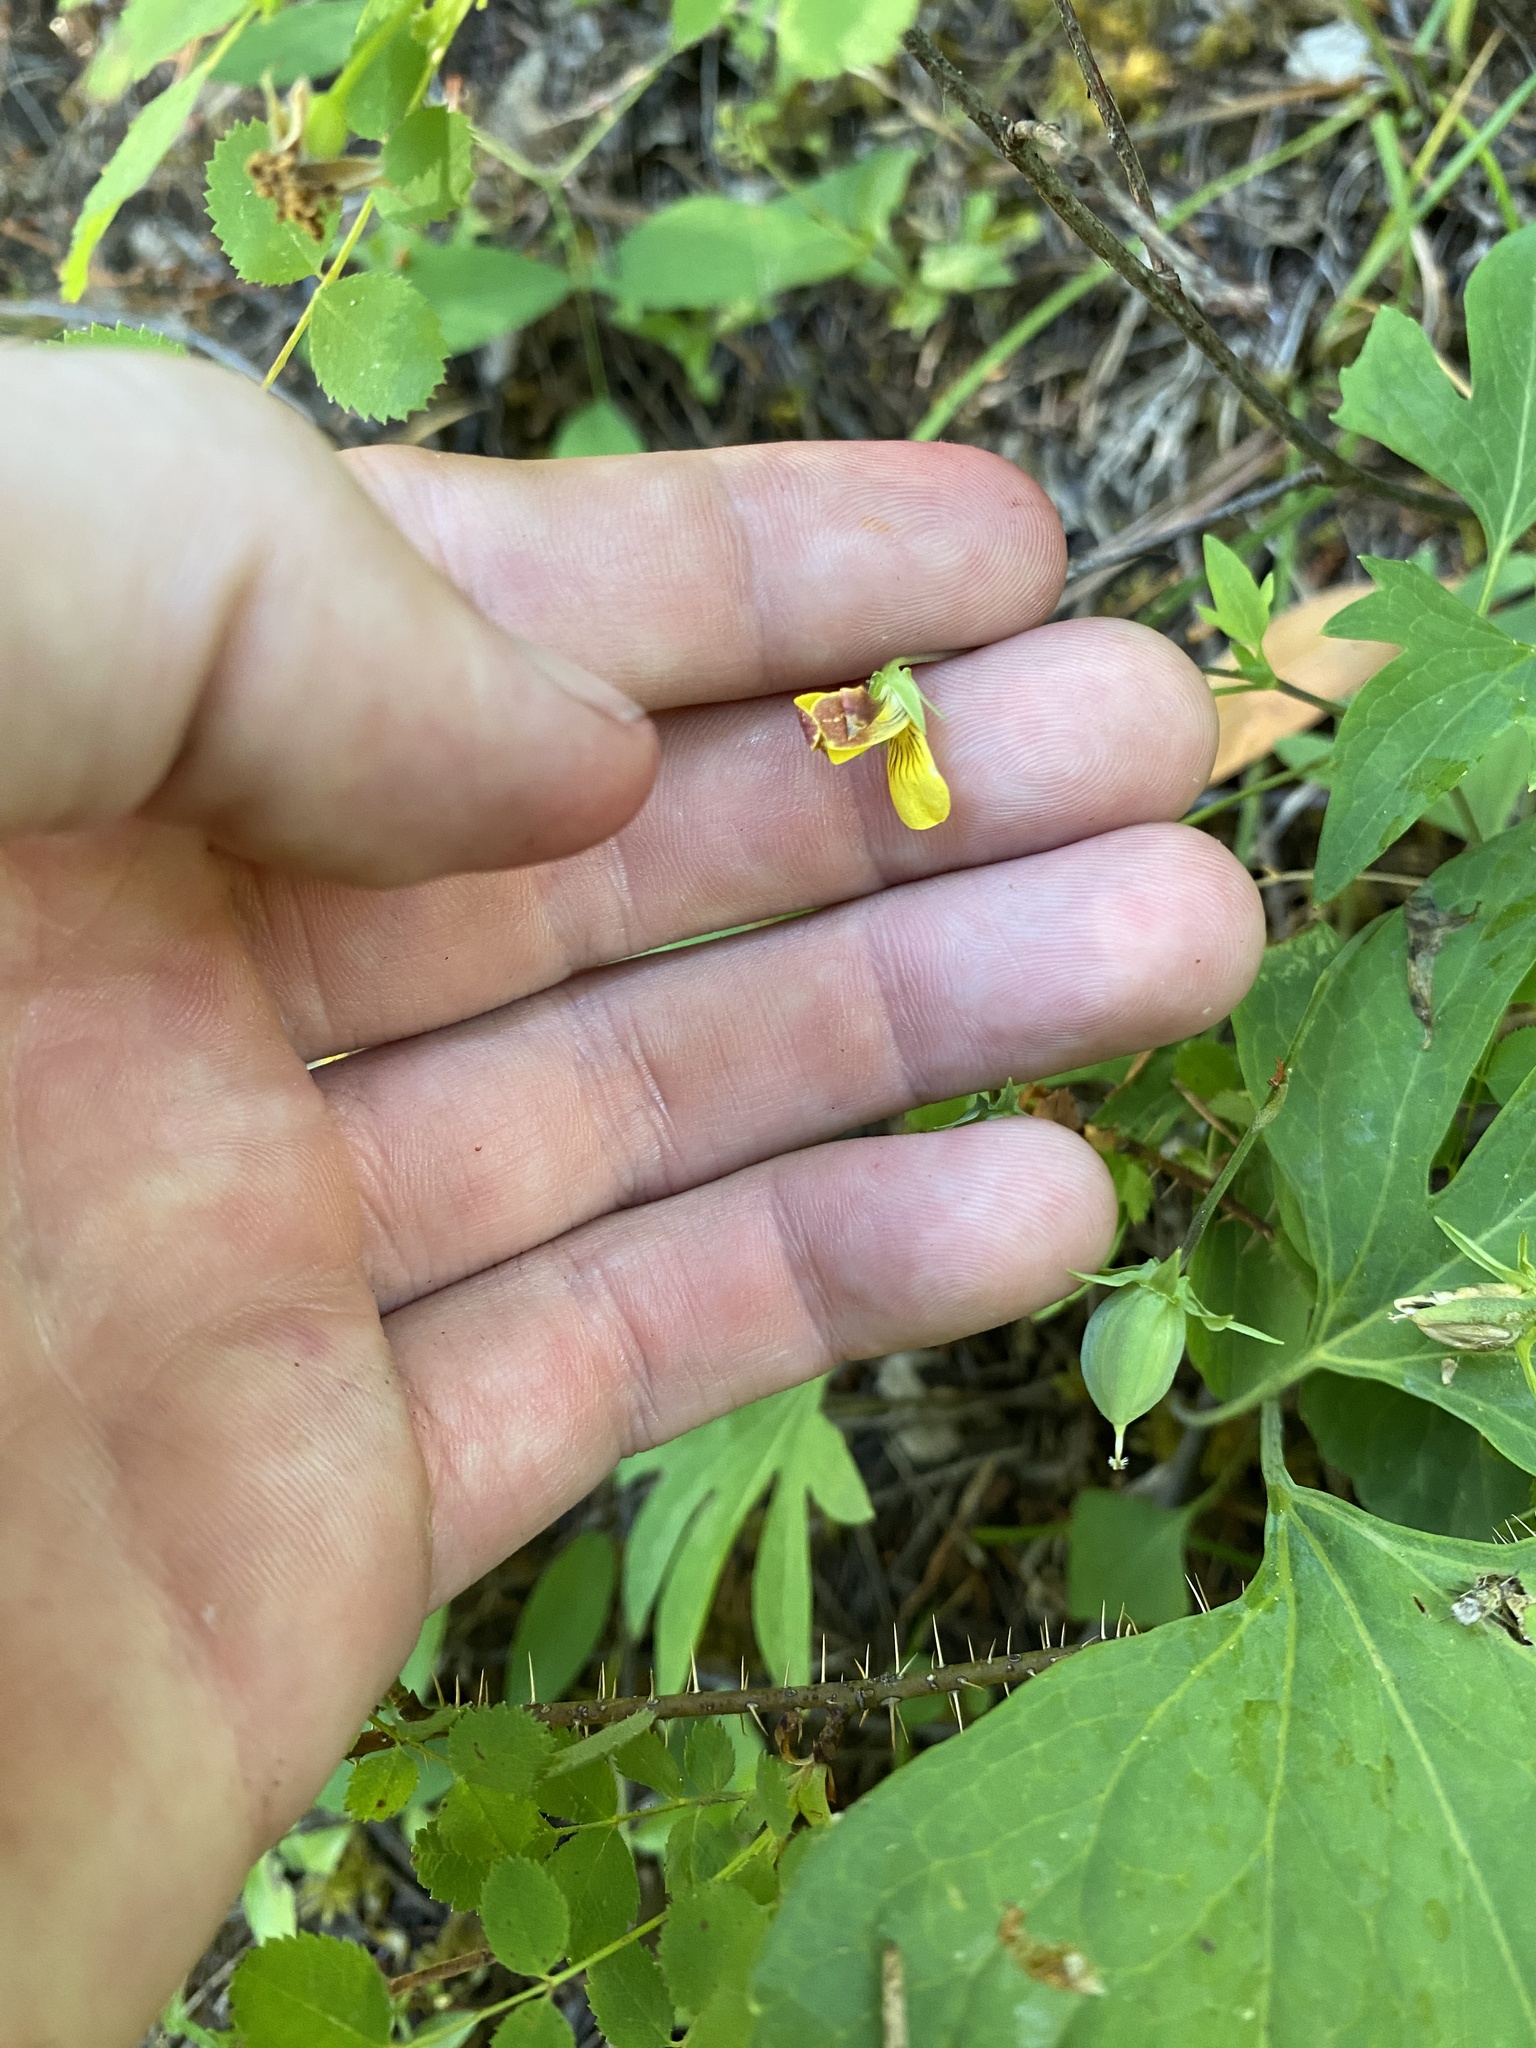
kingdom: Plantae
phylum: Tracheophyta
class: Magnoliopsida
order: Malpighiales
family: Violaceae
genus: Viola
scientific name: Viola lobata
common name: Pine violet
